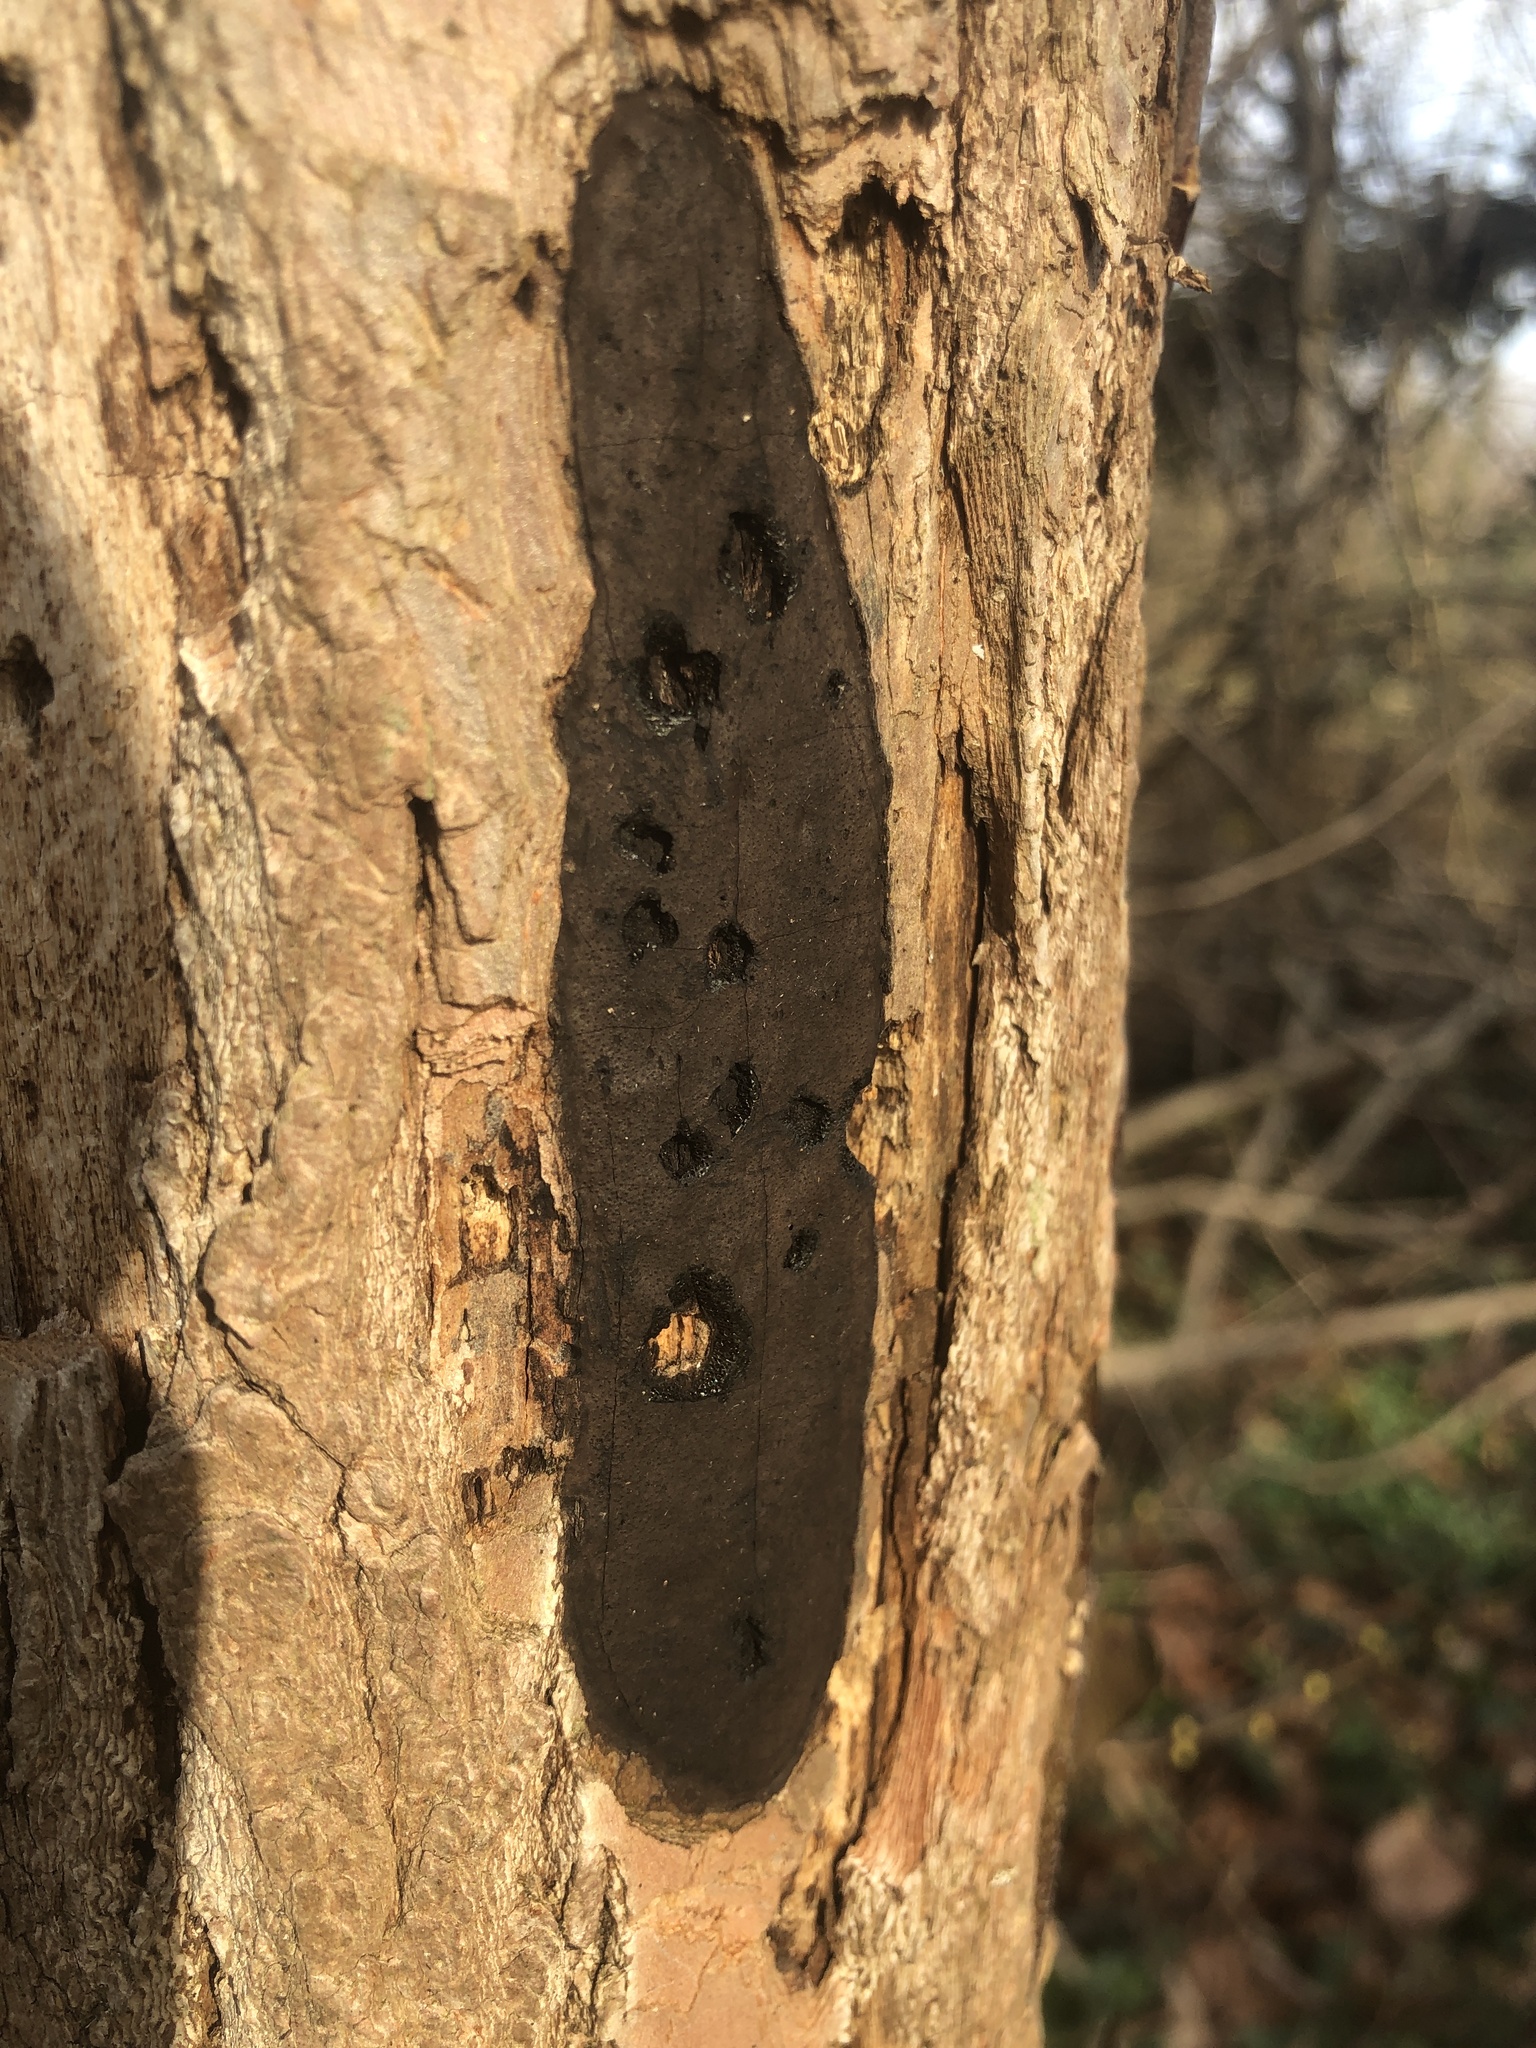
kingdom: Fungi
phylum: Ascomycota
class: Sordariomycetes
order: Xylariales
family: Diatrypaceae
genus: Diatrype
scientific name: Diatrype stigma
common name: Common tarcrust
